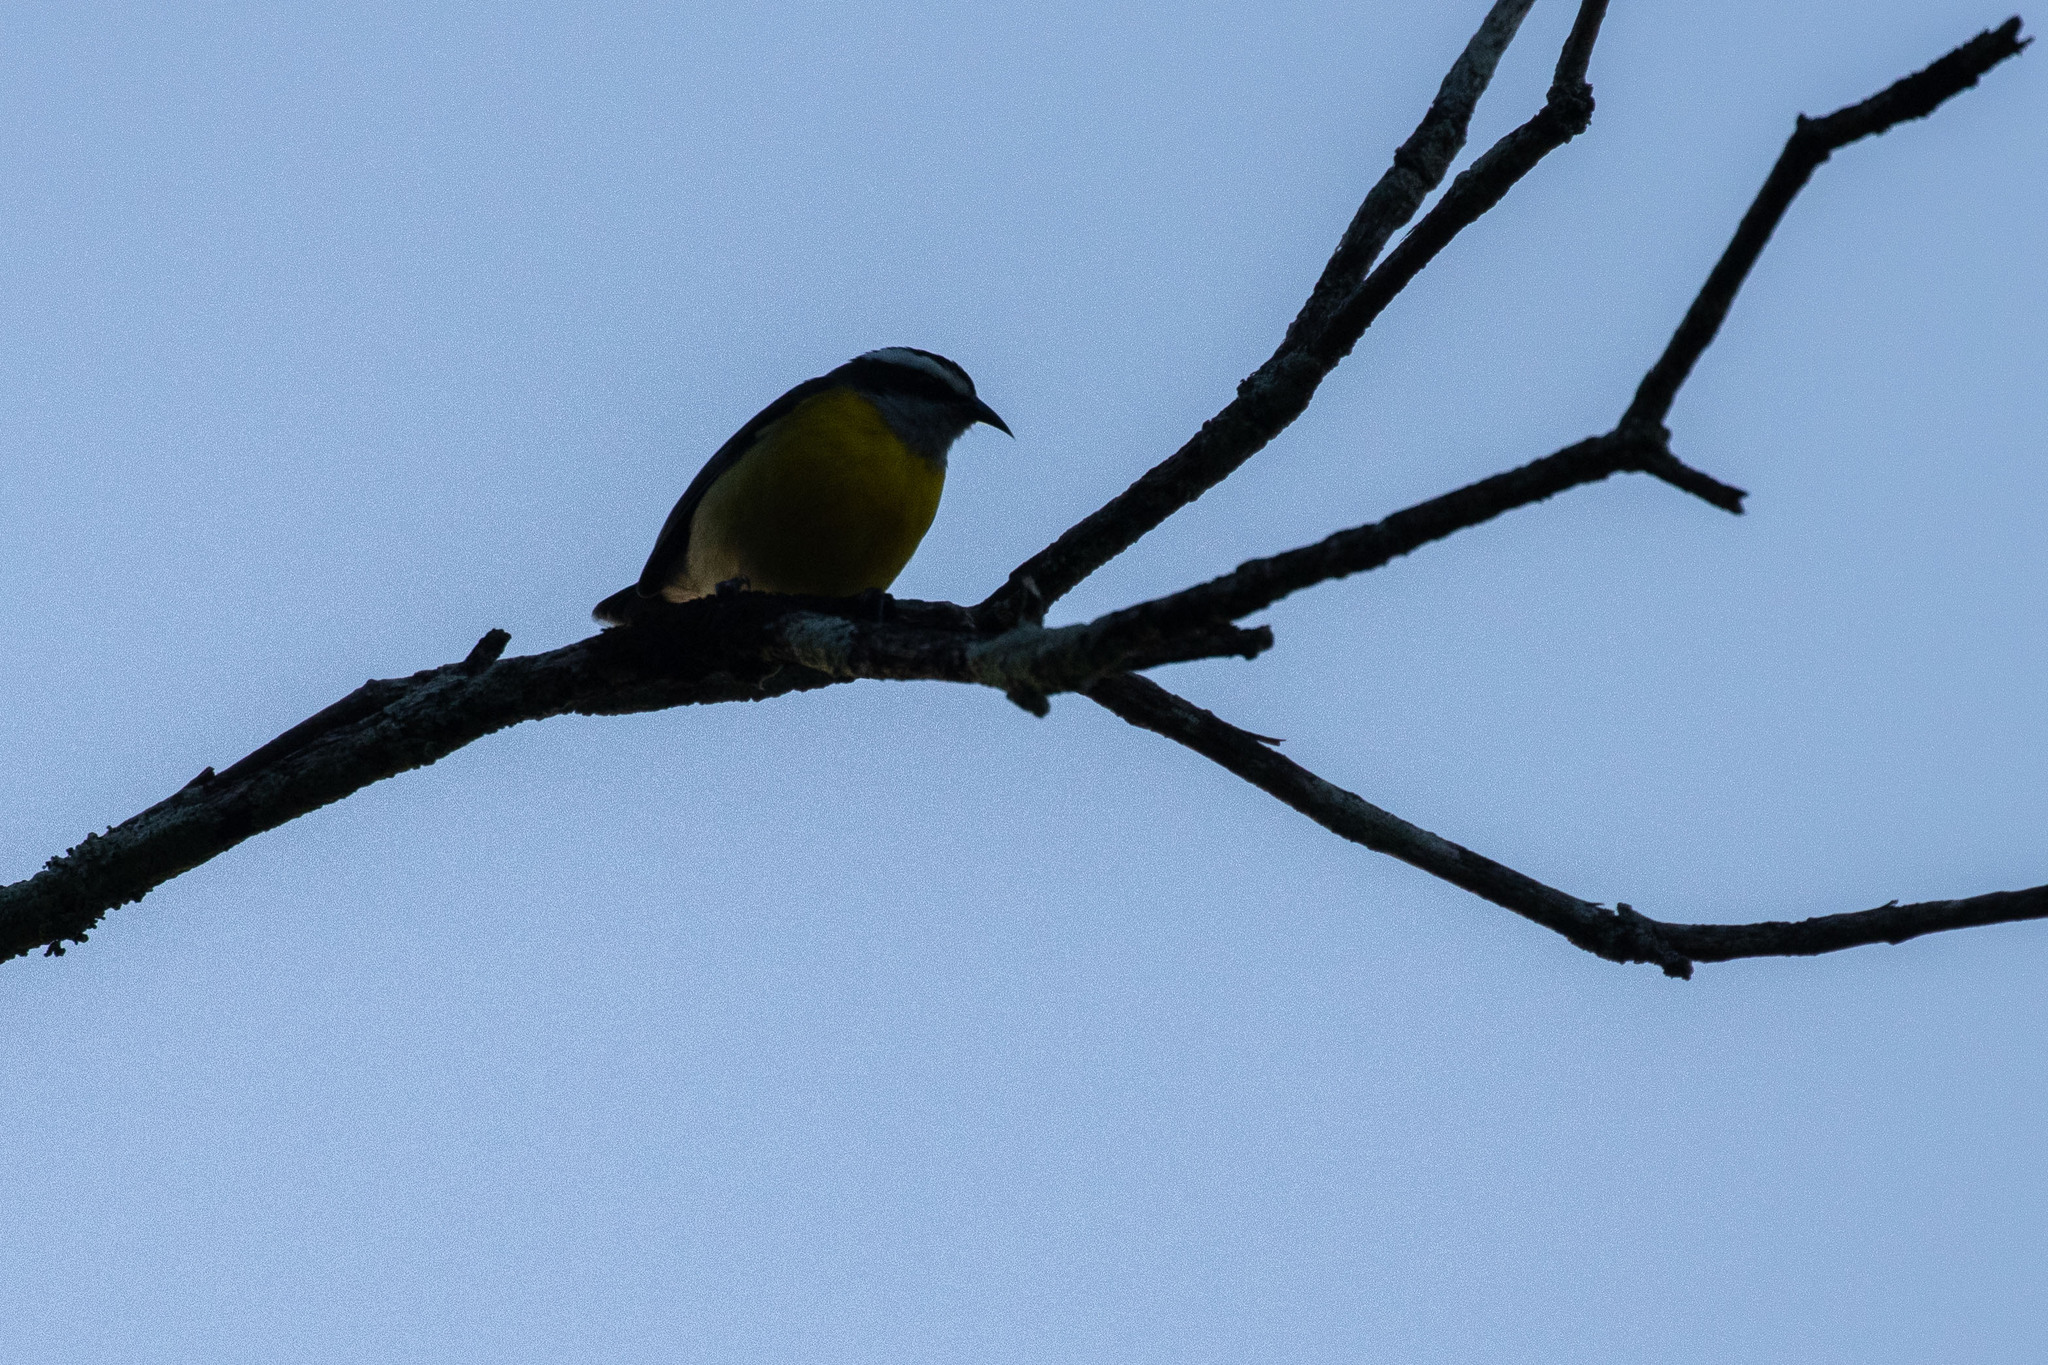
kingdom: Animalia
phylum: Chordata
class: Aves
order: Passeriformes
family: Thraupidae
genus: Coereba
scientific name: Coereba flaveola
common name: Bananaquit
